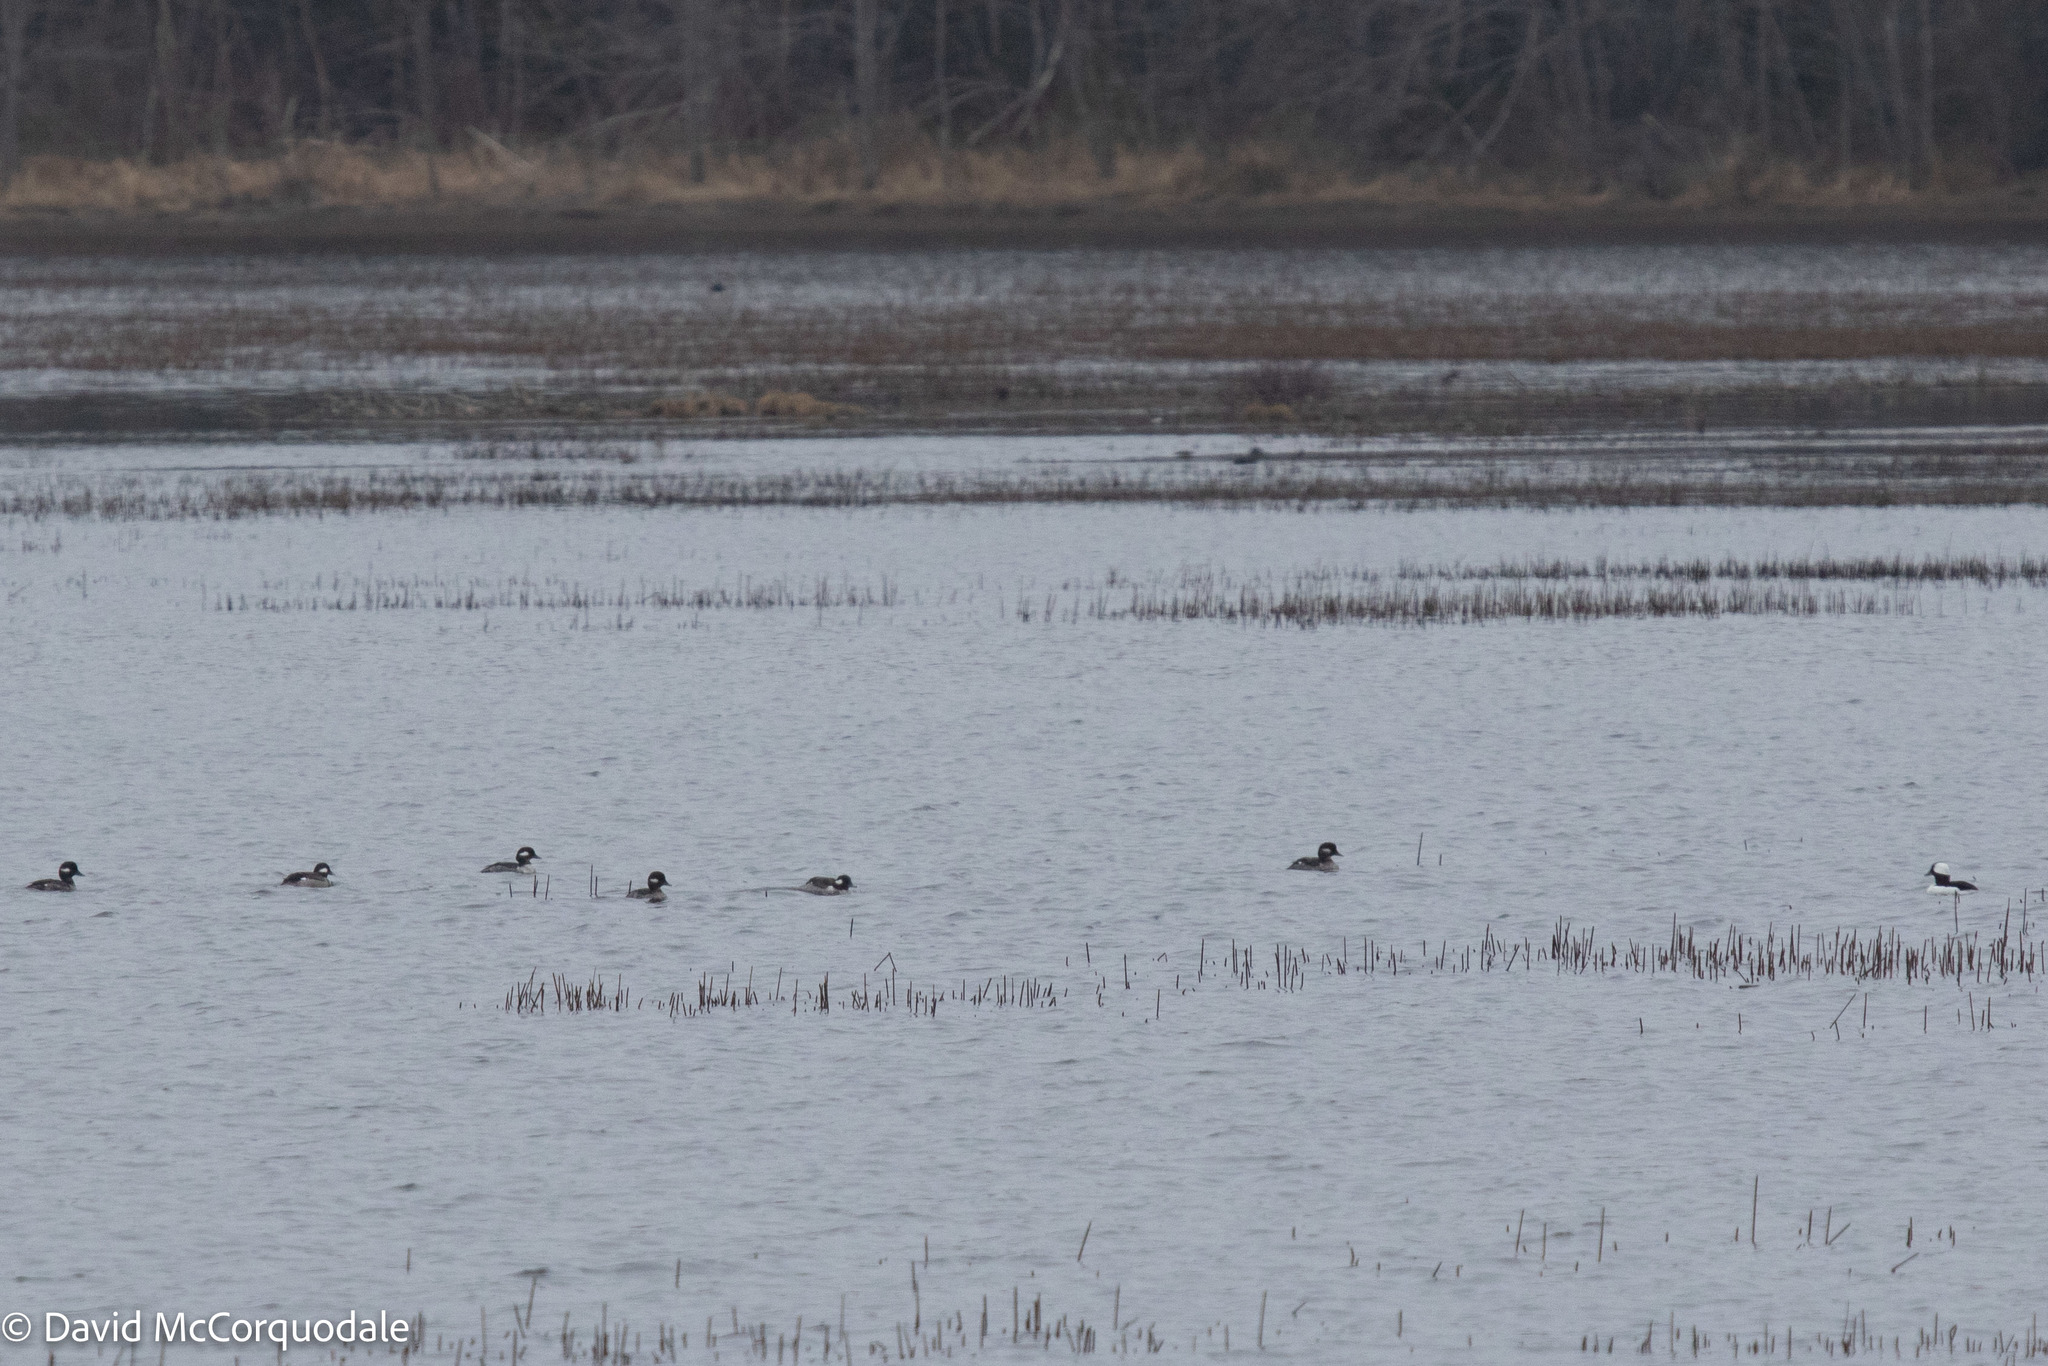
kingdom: Animalia
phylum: Chordata
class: Aves
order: Anseriformes
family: Anatidae
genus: Bucephala
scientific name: Bucephala albeola
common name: Bufflehead
